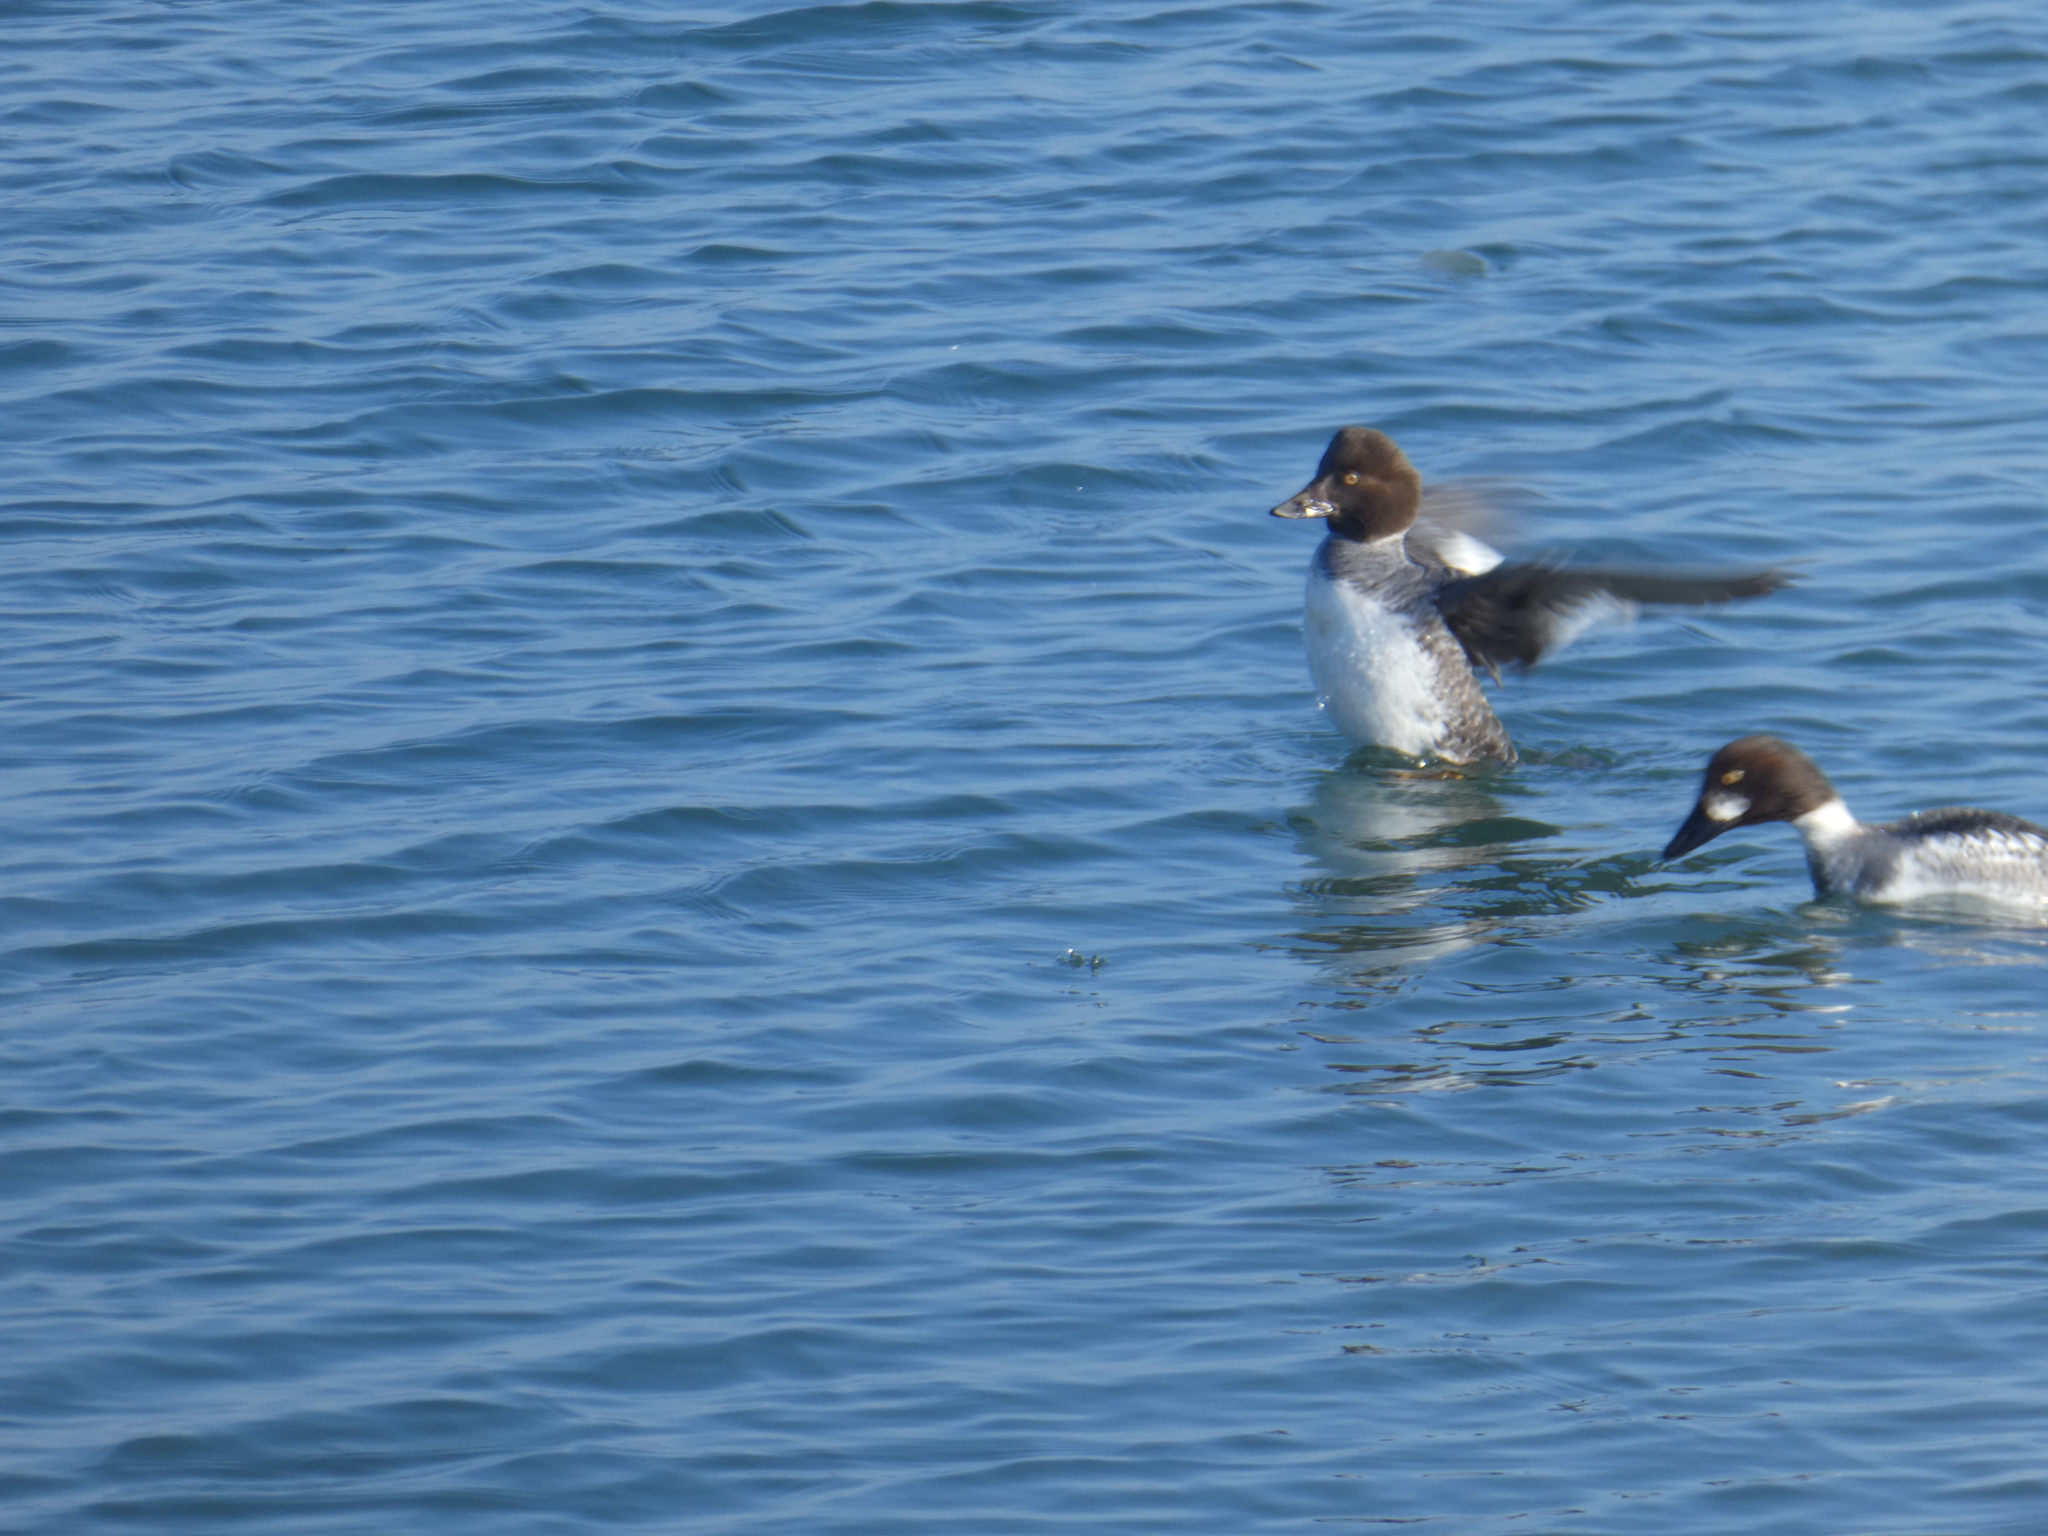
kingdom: Animalia
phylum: Chordata
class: Aves
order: Anseriformes
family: Anatidae
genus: Bucephala
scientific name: Bucephala clangula
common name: Common goldeneye
